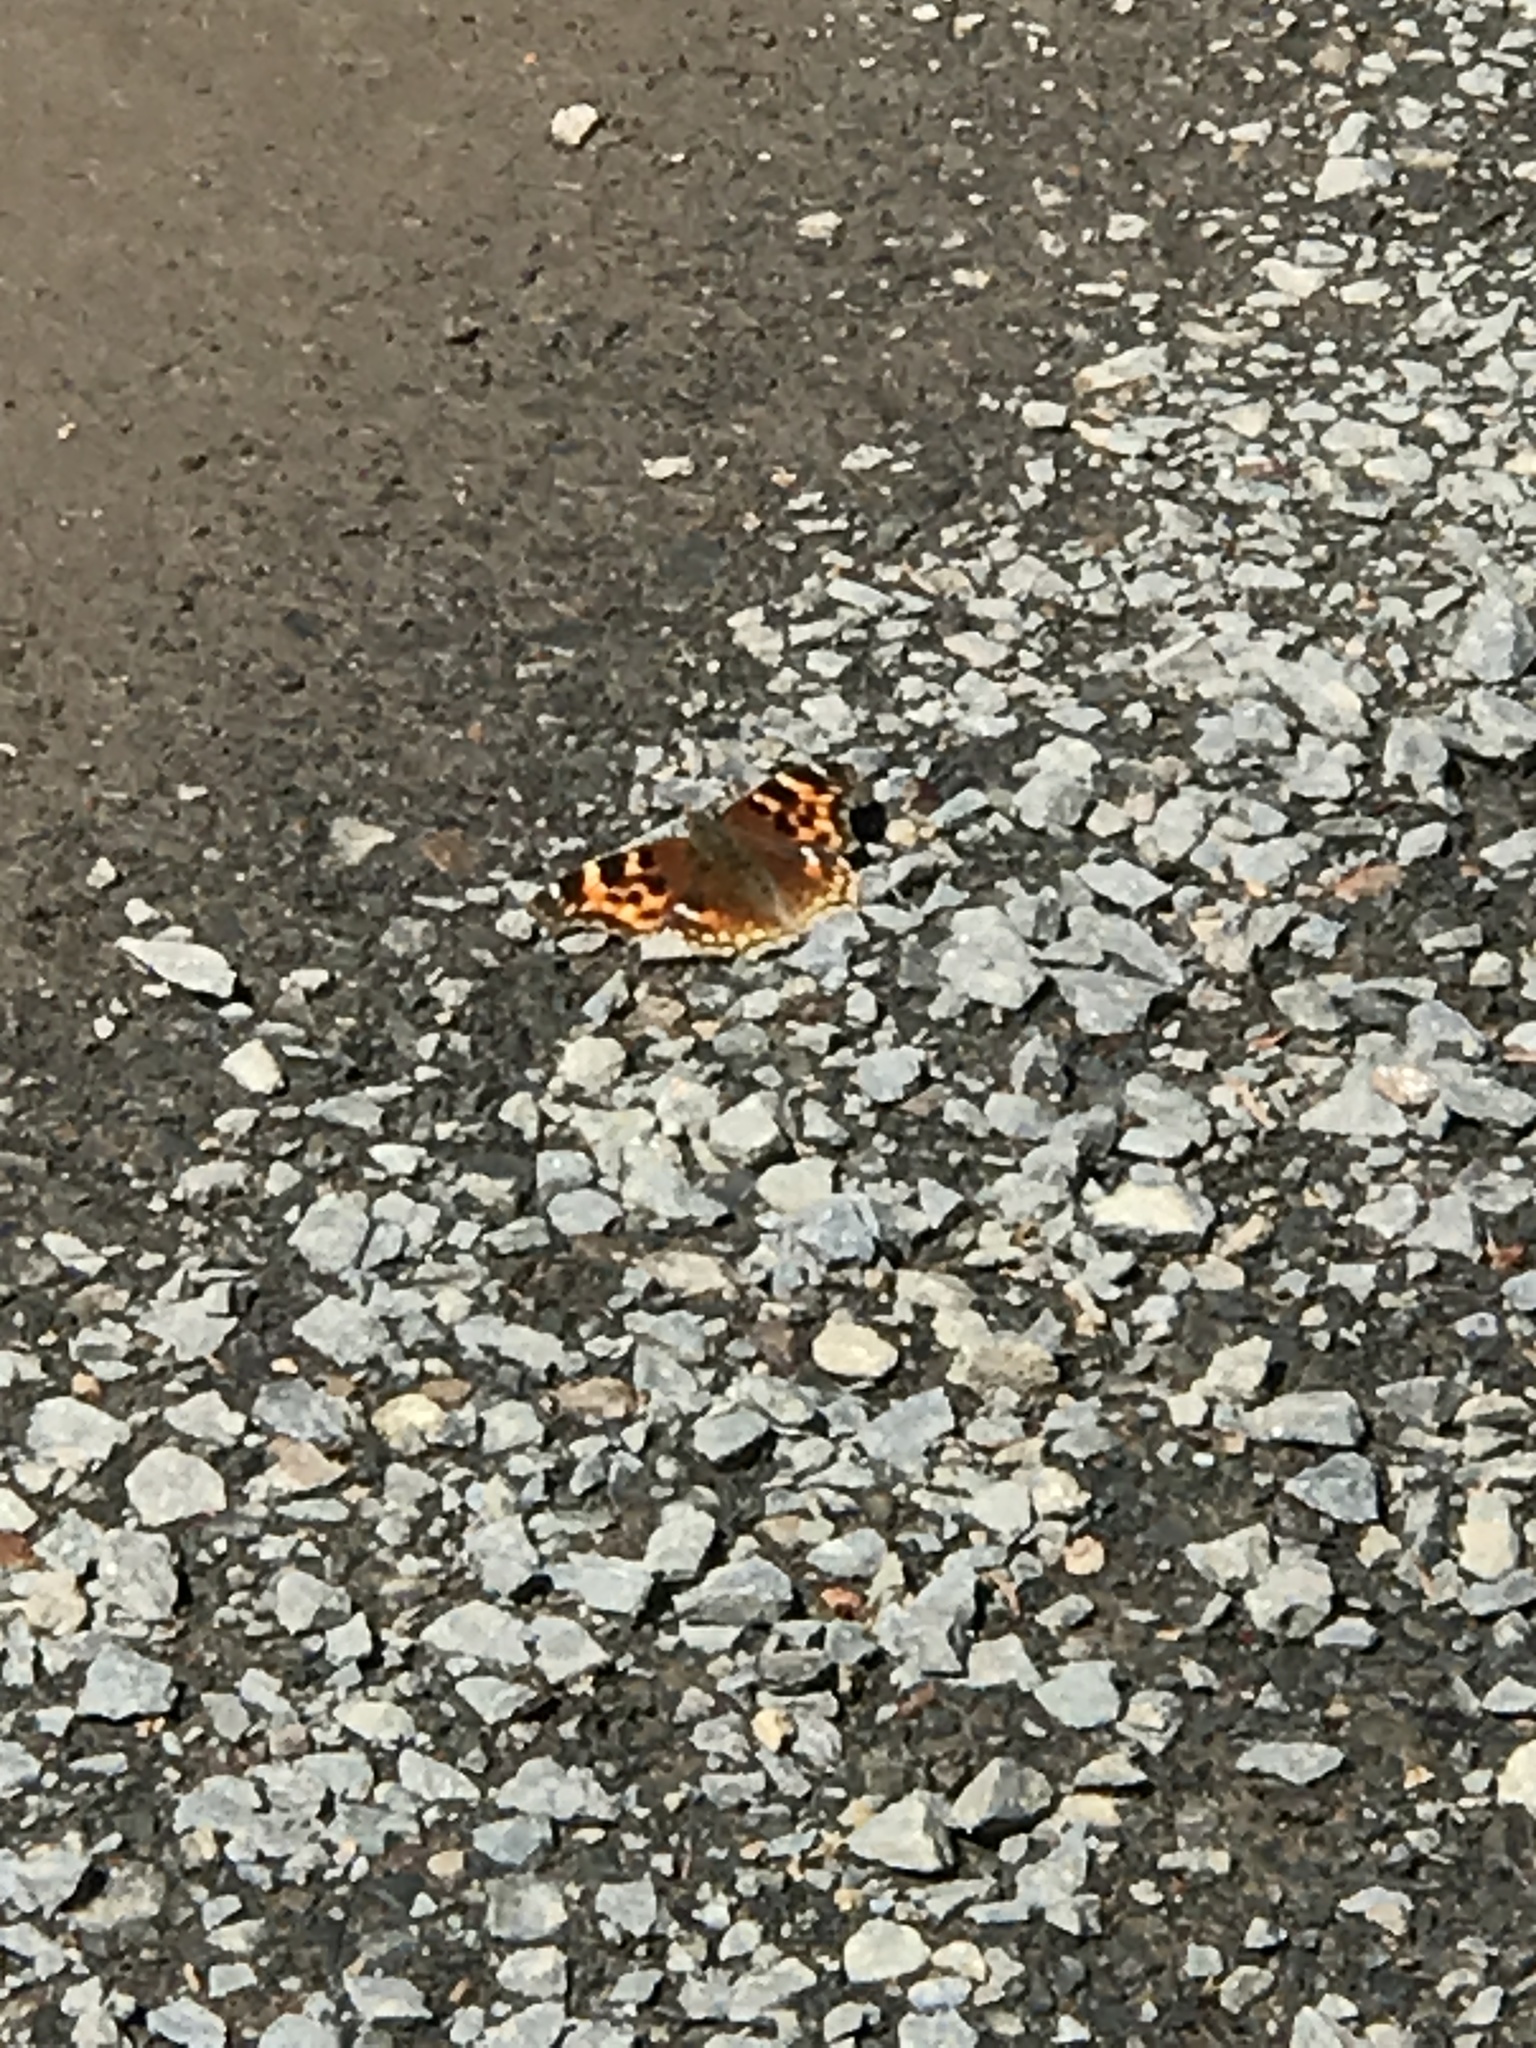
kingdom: Animalia
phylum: Arthropoda
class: Insecta
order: Lepidoptera
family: Nymphalidae
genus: Polygonia
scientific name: Polygonia vaualbum
